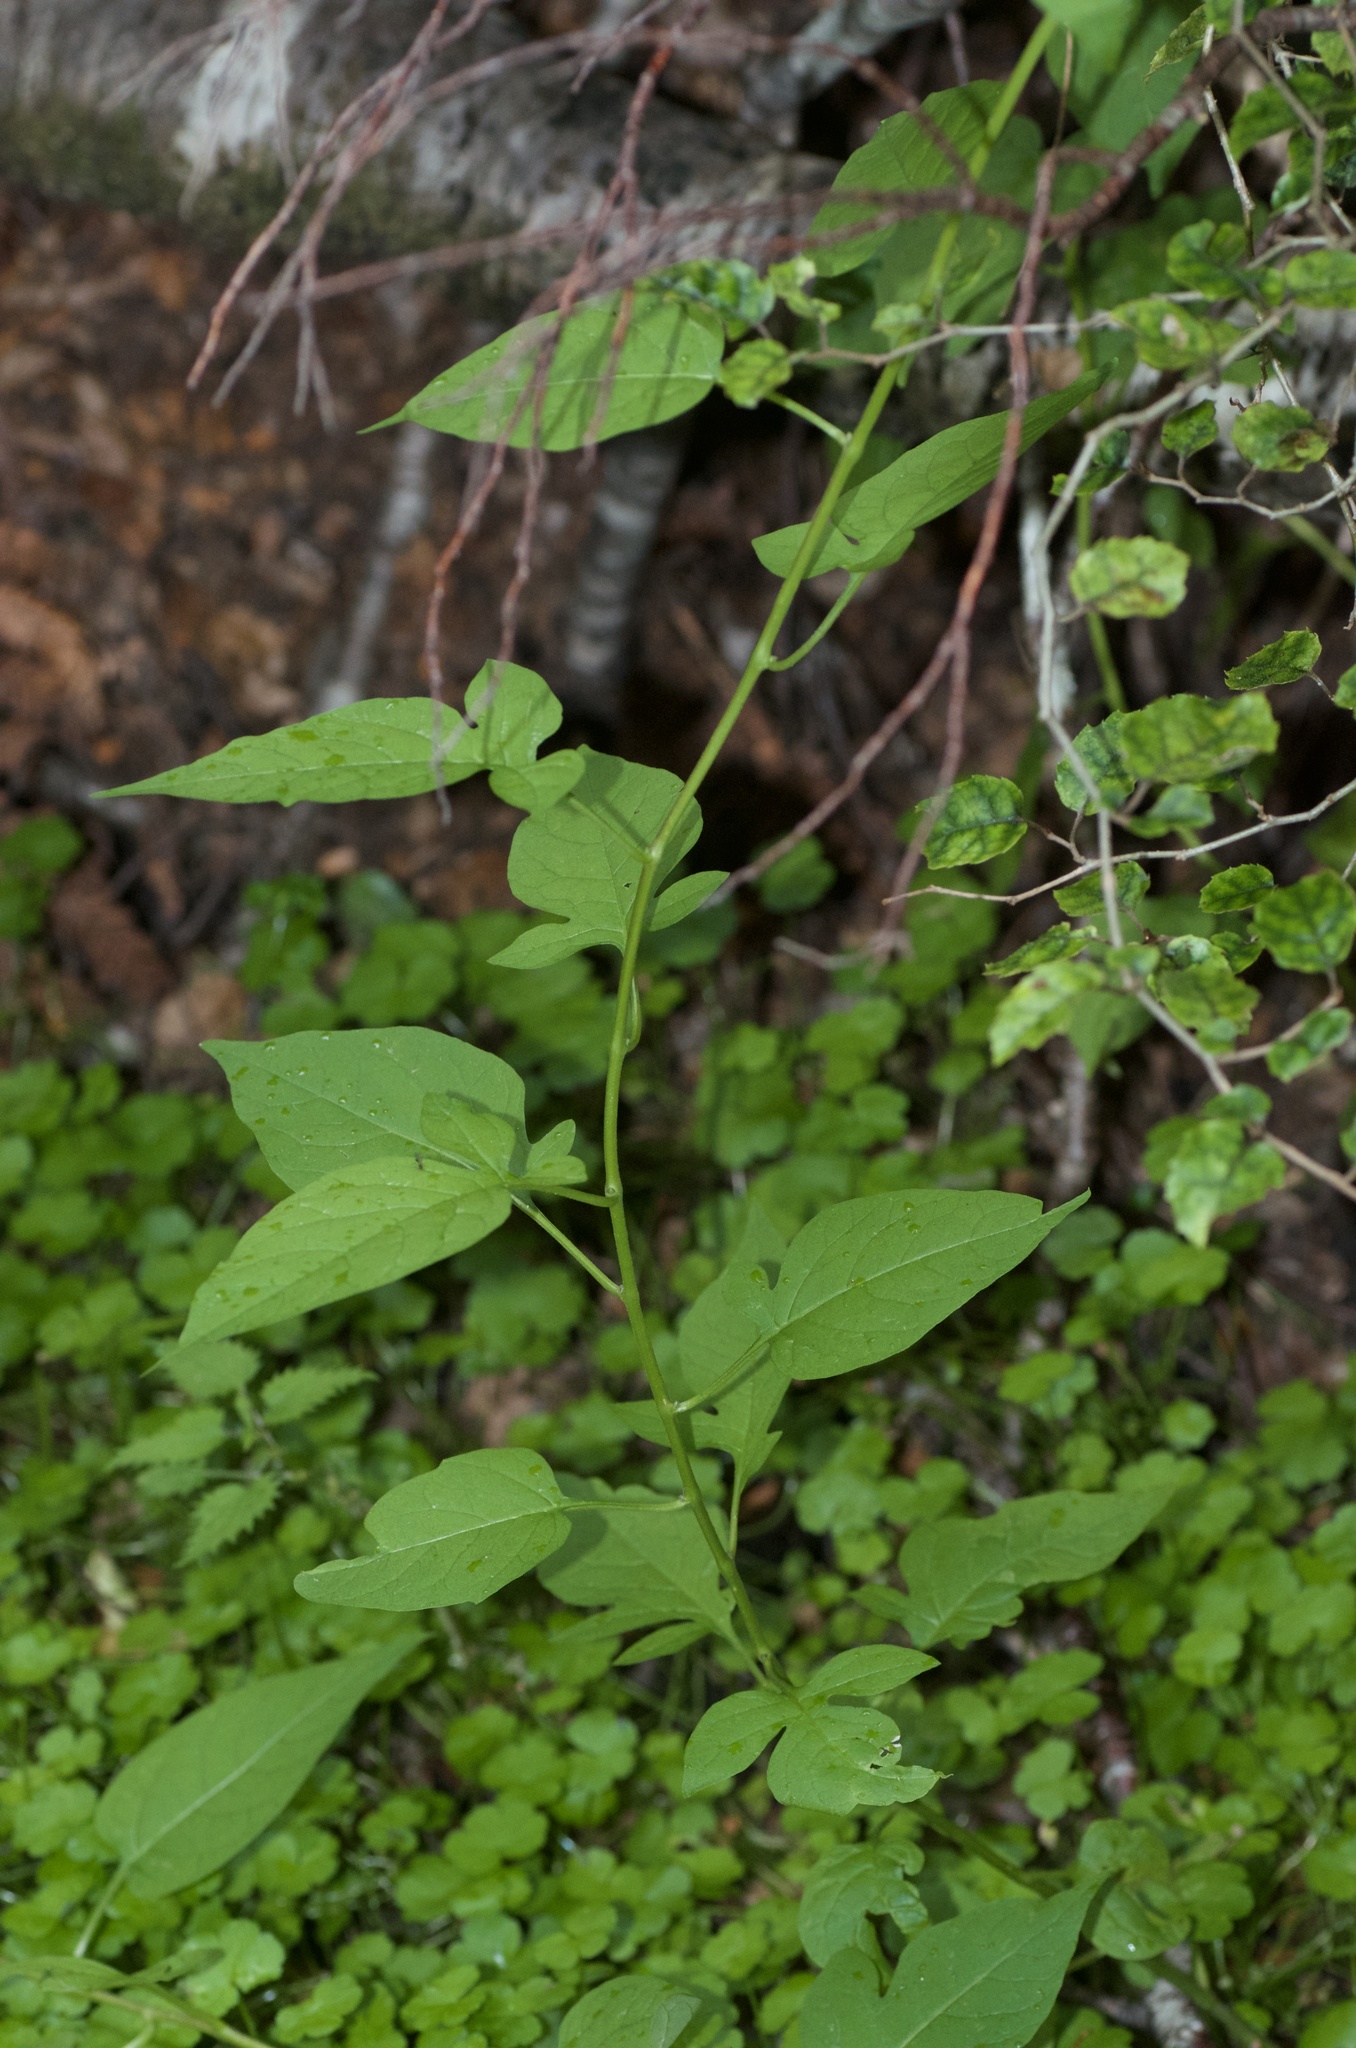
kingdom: Plantae
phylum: Tracheophyta
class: Magnoliopsida
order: Solanales
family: Solanaceae
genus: Solanum
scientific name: Solanum dulcamara
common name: Climbing nightshade
